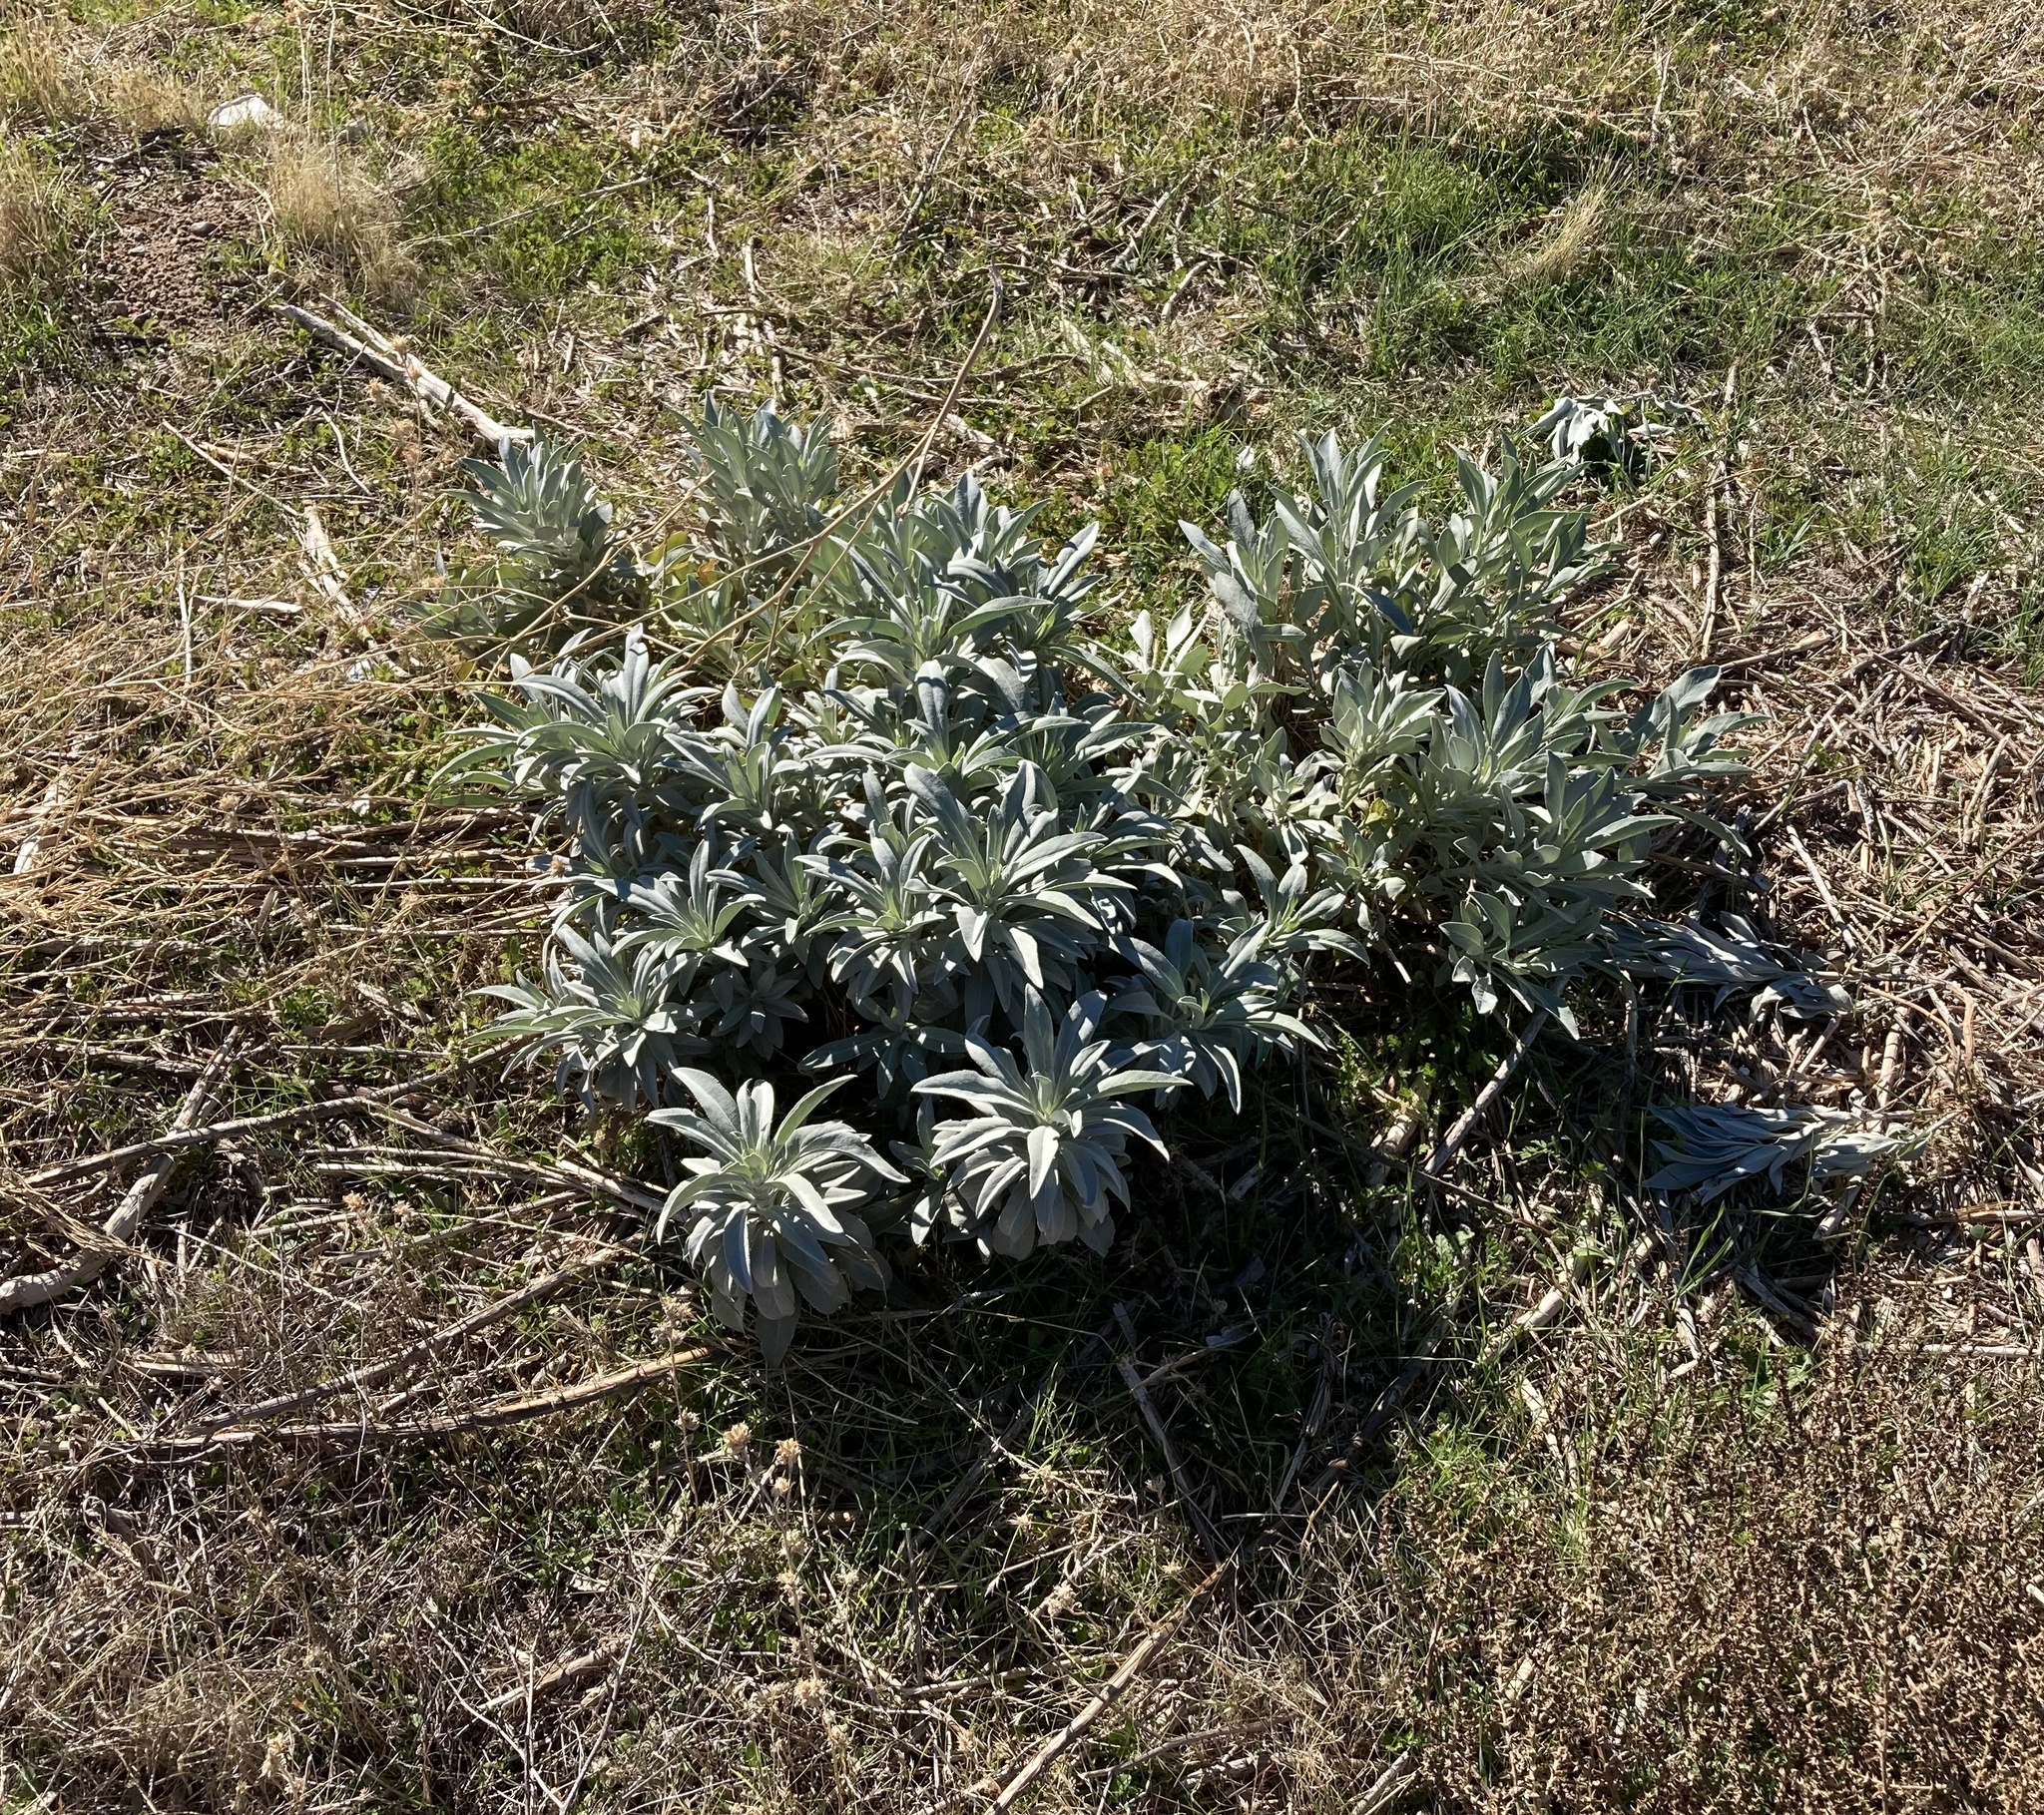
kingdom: Plantae
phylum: Tracheophyta
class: Magnoliopsida
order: Lamiales
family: Lamiaceae
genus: Salvia
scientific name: Salvia apiana
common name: White sage
